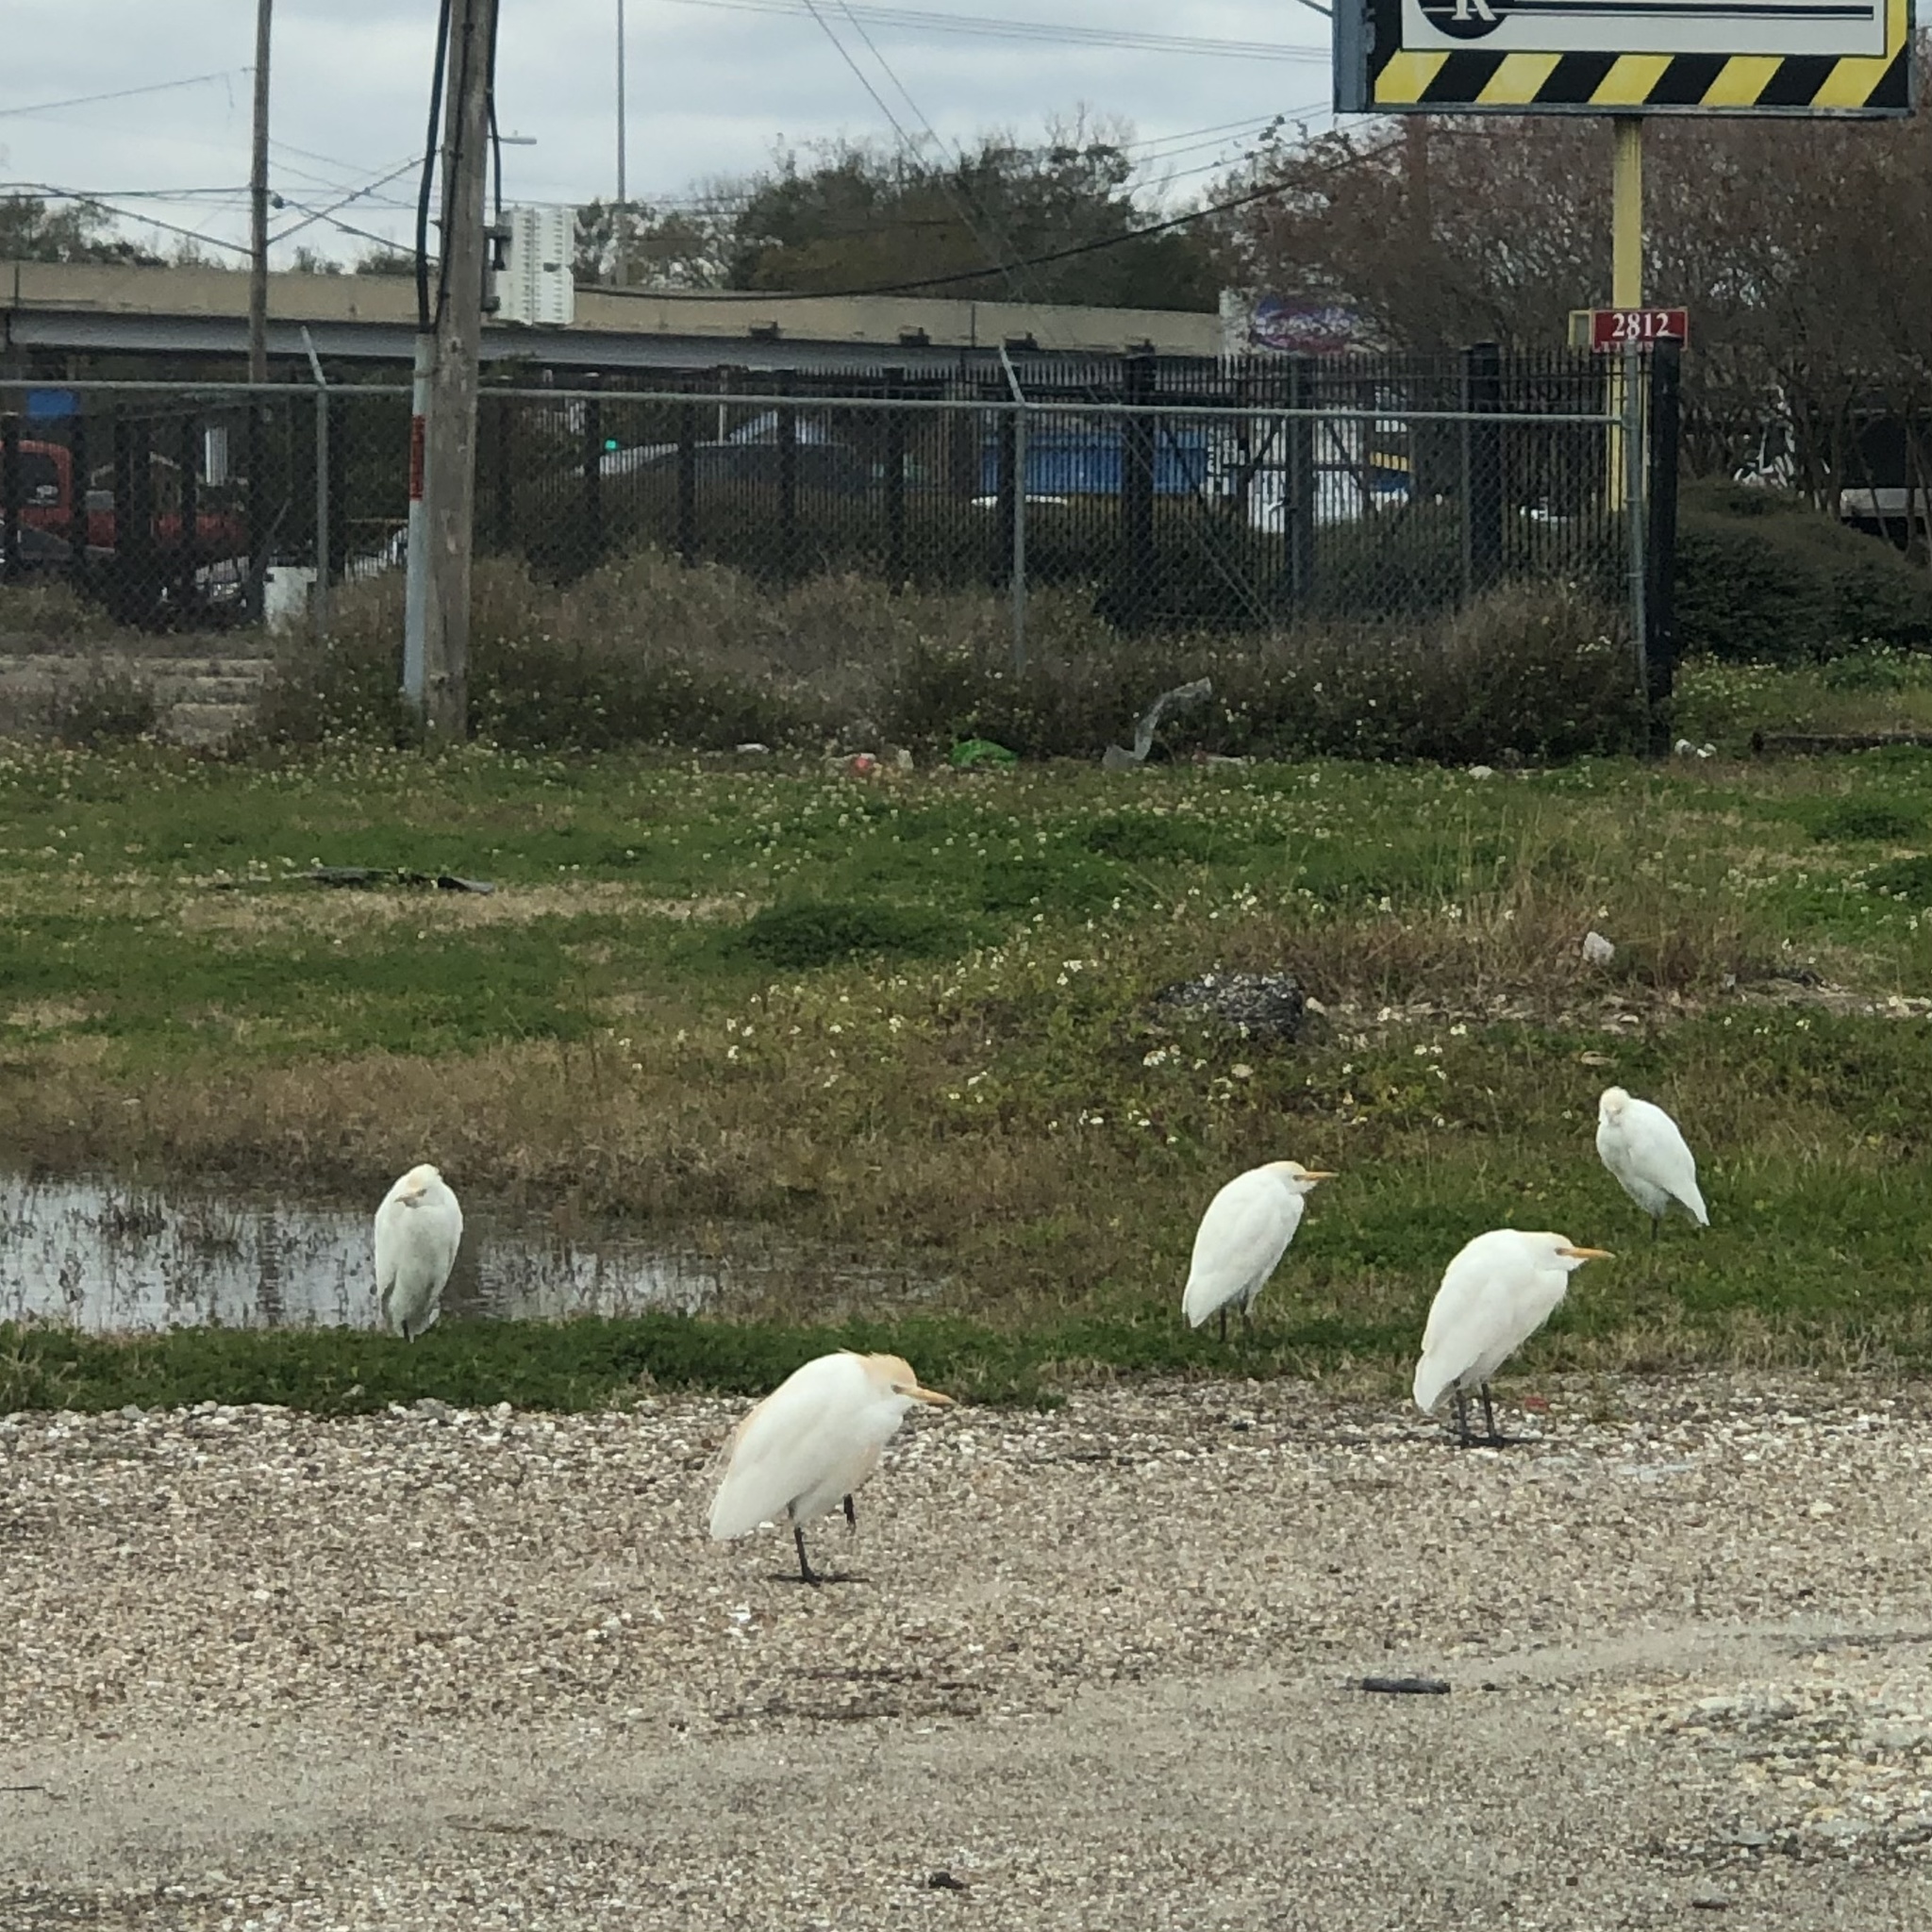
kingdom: Animalia
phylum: Chordata
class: Aves
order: Pelecaniformes
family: Ardeidae
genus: Bubulcus
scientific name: Bubulcus ibis
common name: Cattle egret
